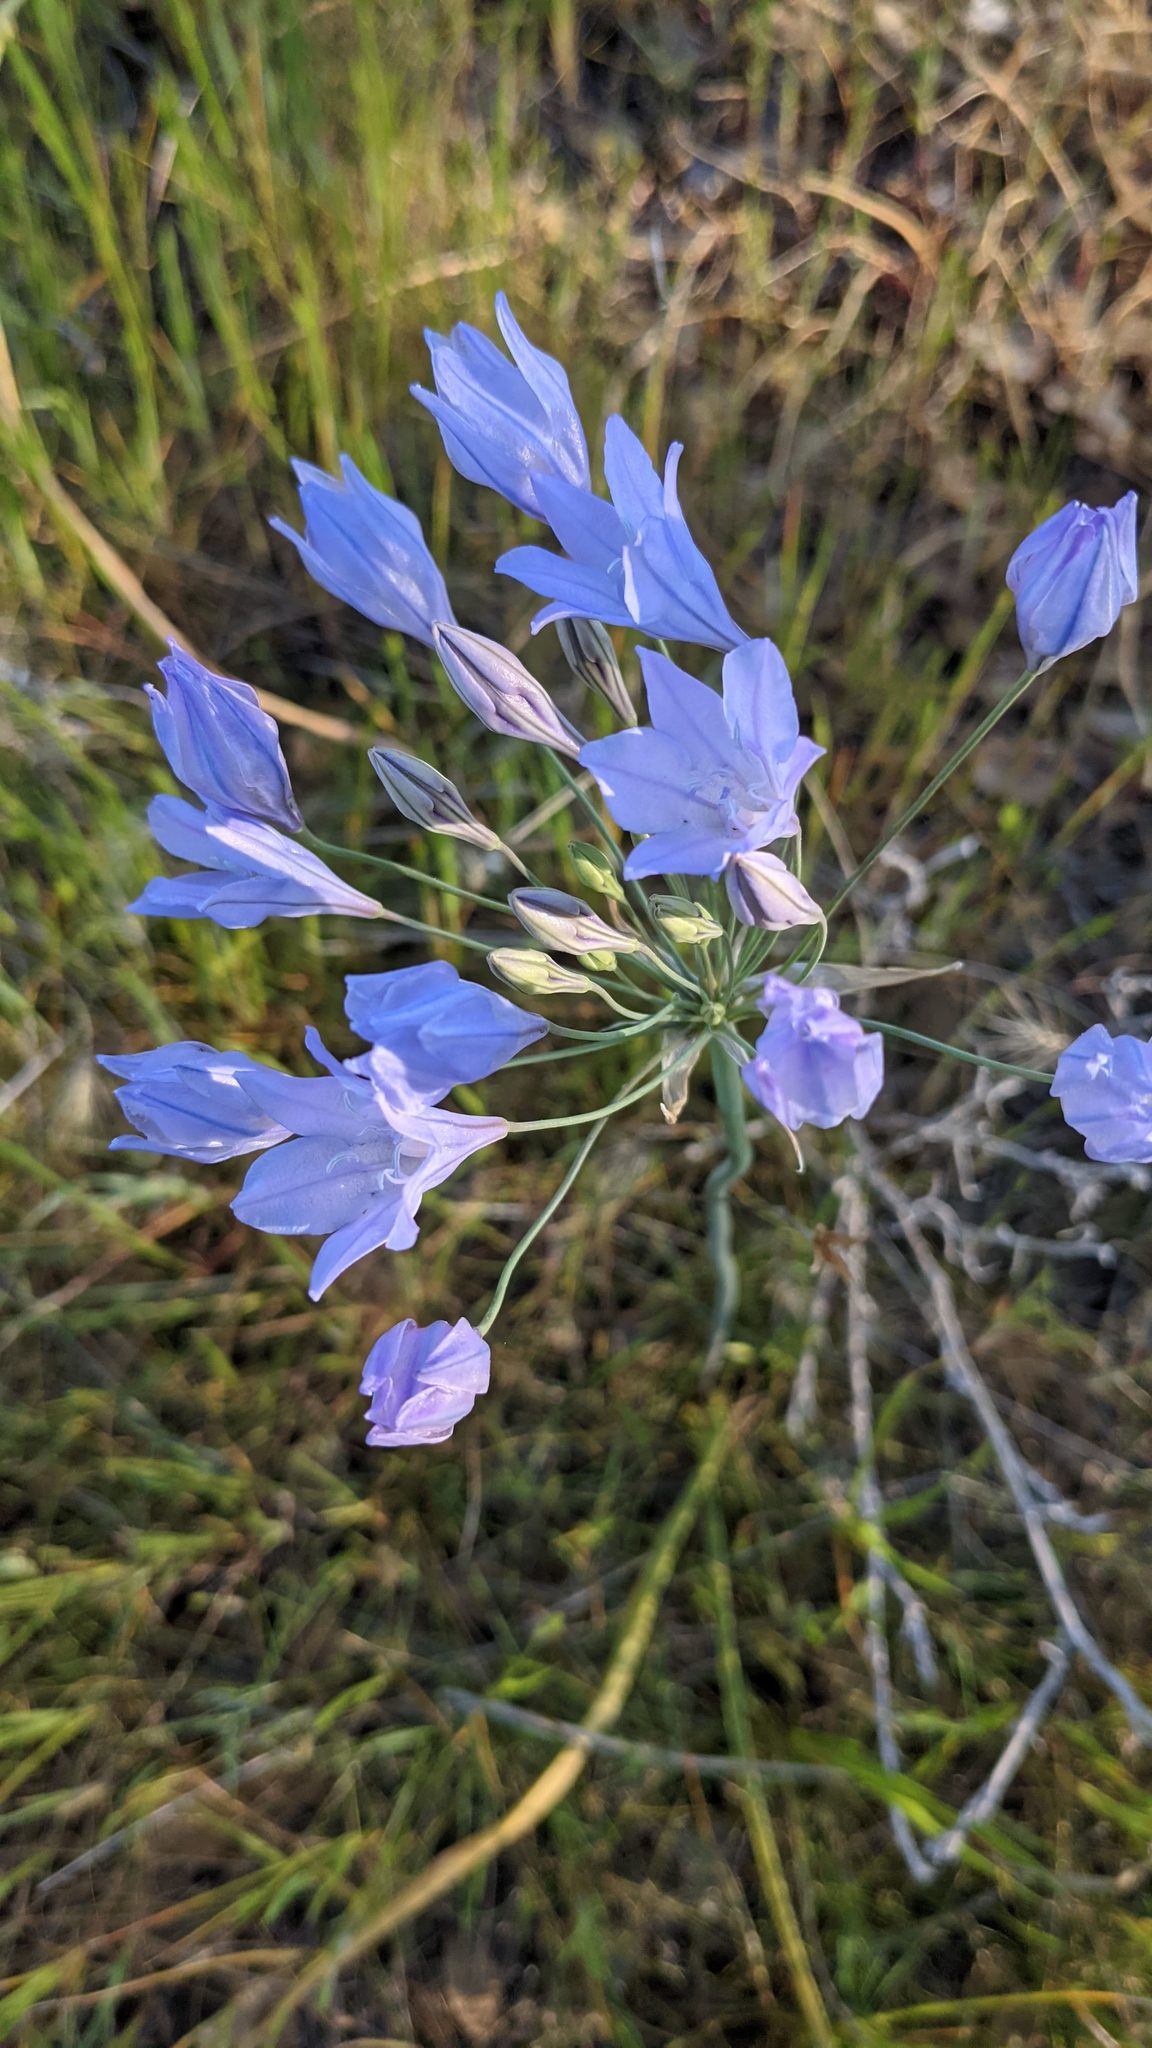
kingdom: Plantae
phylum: Tracheophyta
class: Liliopsida
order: Asparagales
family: Asparagaceae
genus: Triteleia
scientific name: Triteleia laxa
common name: Triplet-lily
